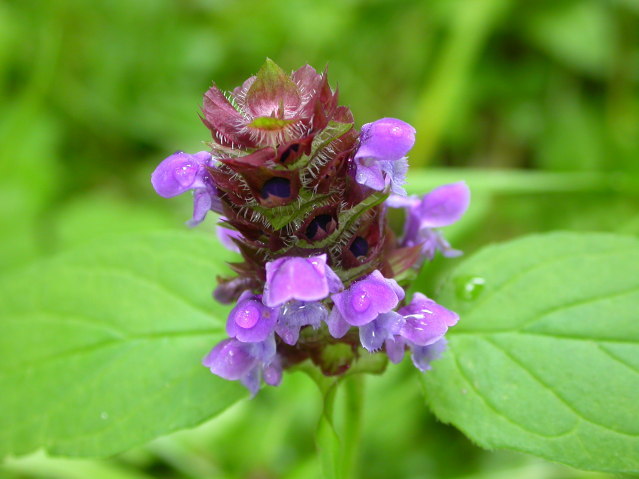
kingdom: Plantae
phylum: Tracheophyta
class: Magnoliopsida
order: Lamiales
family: Lamiaceae
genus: Prunella
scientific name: Prunella vulgaris
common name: Heal-all
